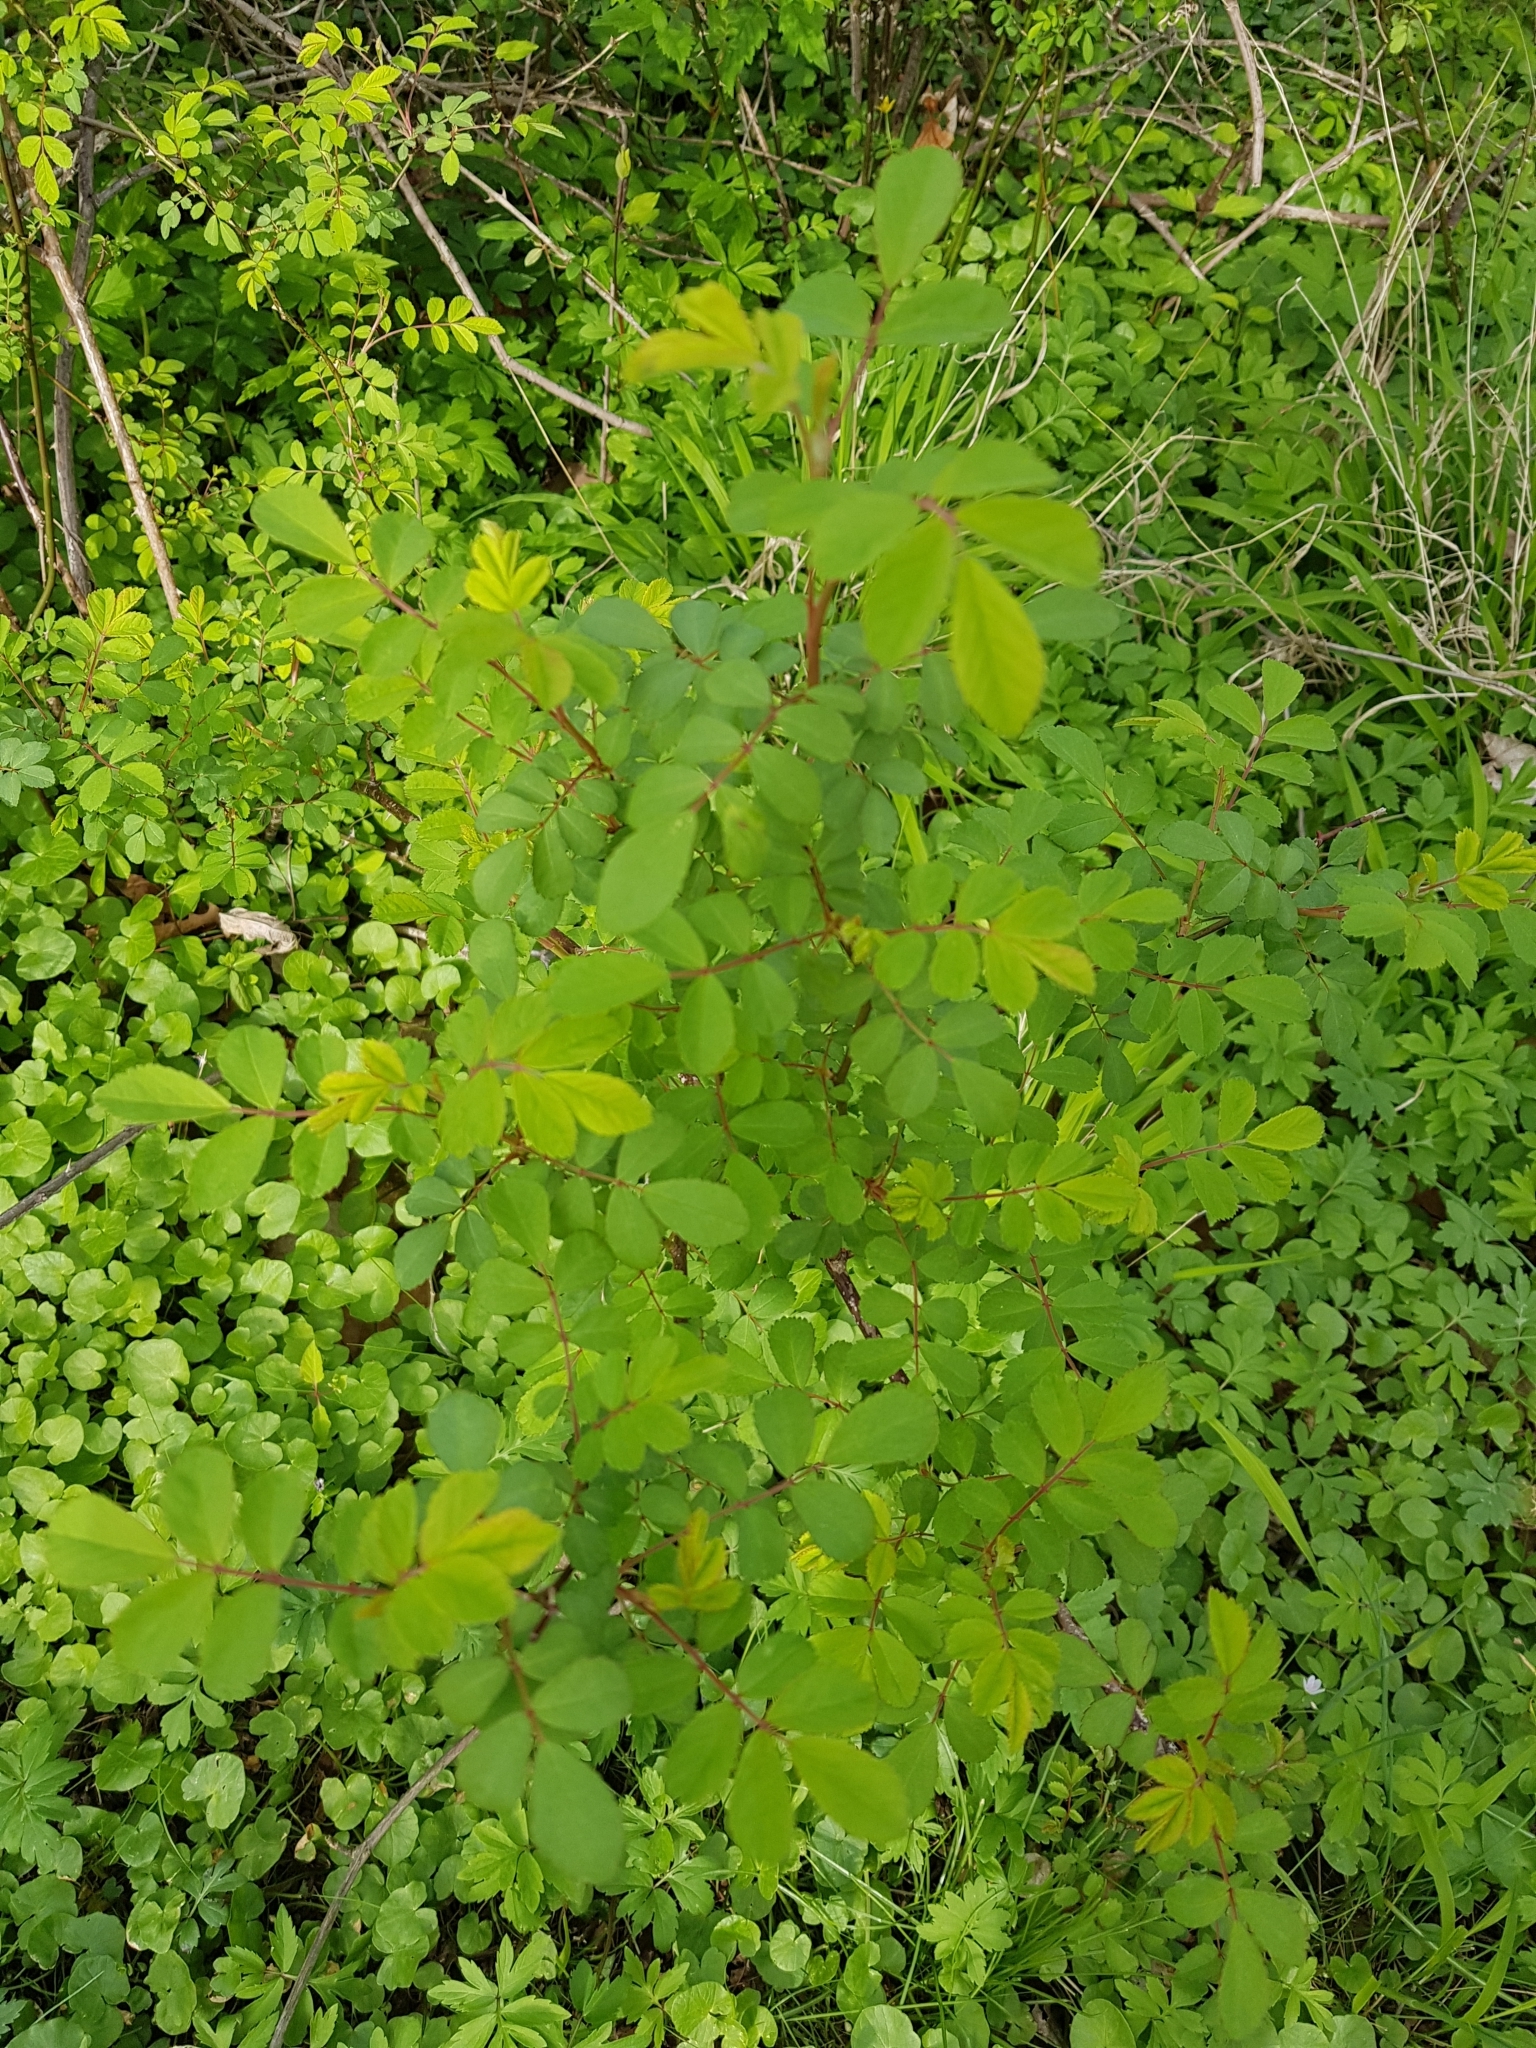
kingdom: Plantae
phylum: Tracheophyta
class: Magnoliopsida
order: Rosales
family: Rosaceae
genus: Rosa
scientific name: Rosa multiflora
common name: Multiflora rose
